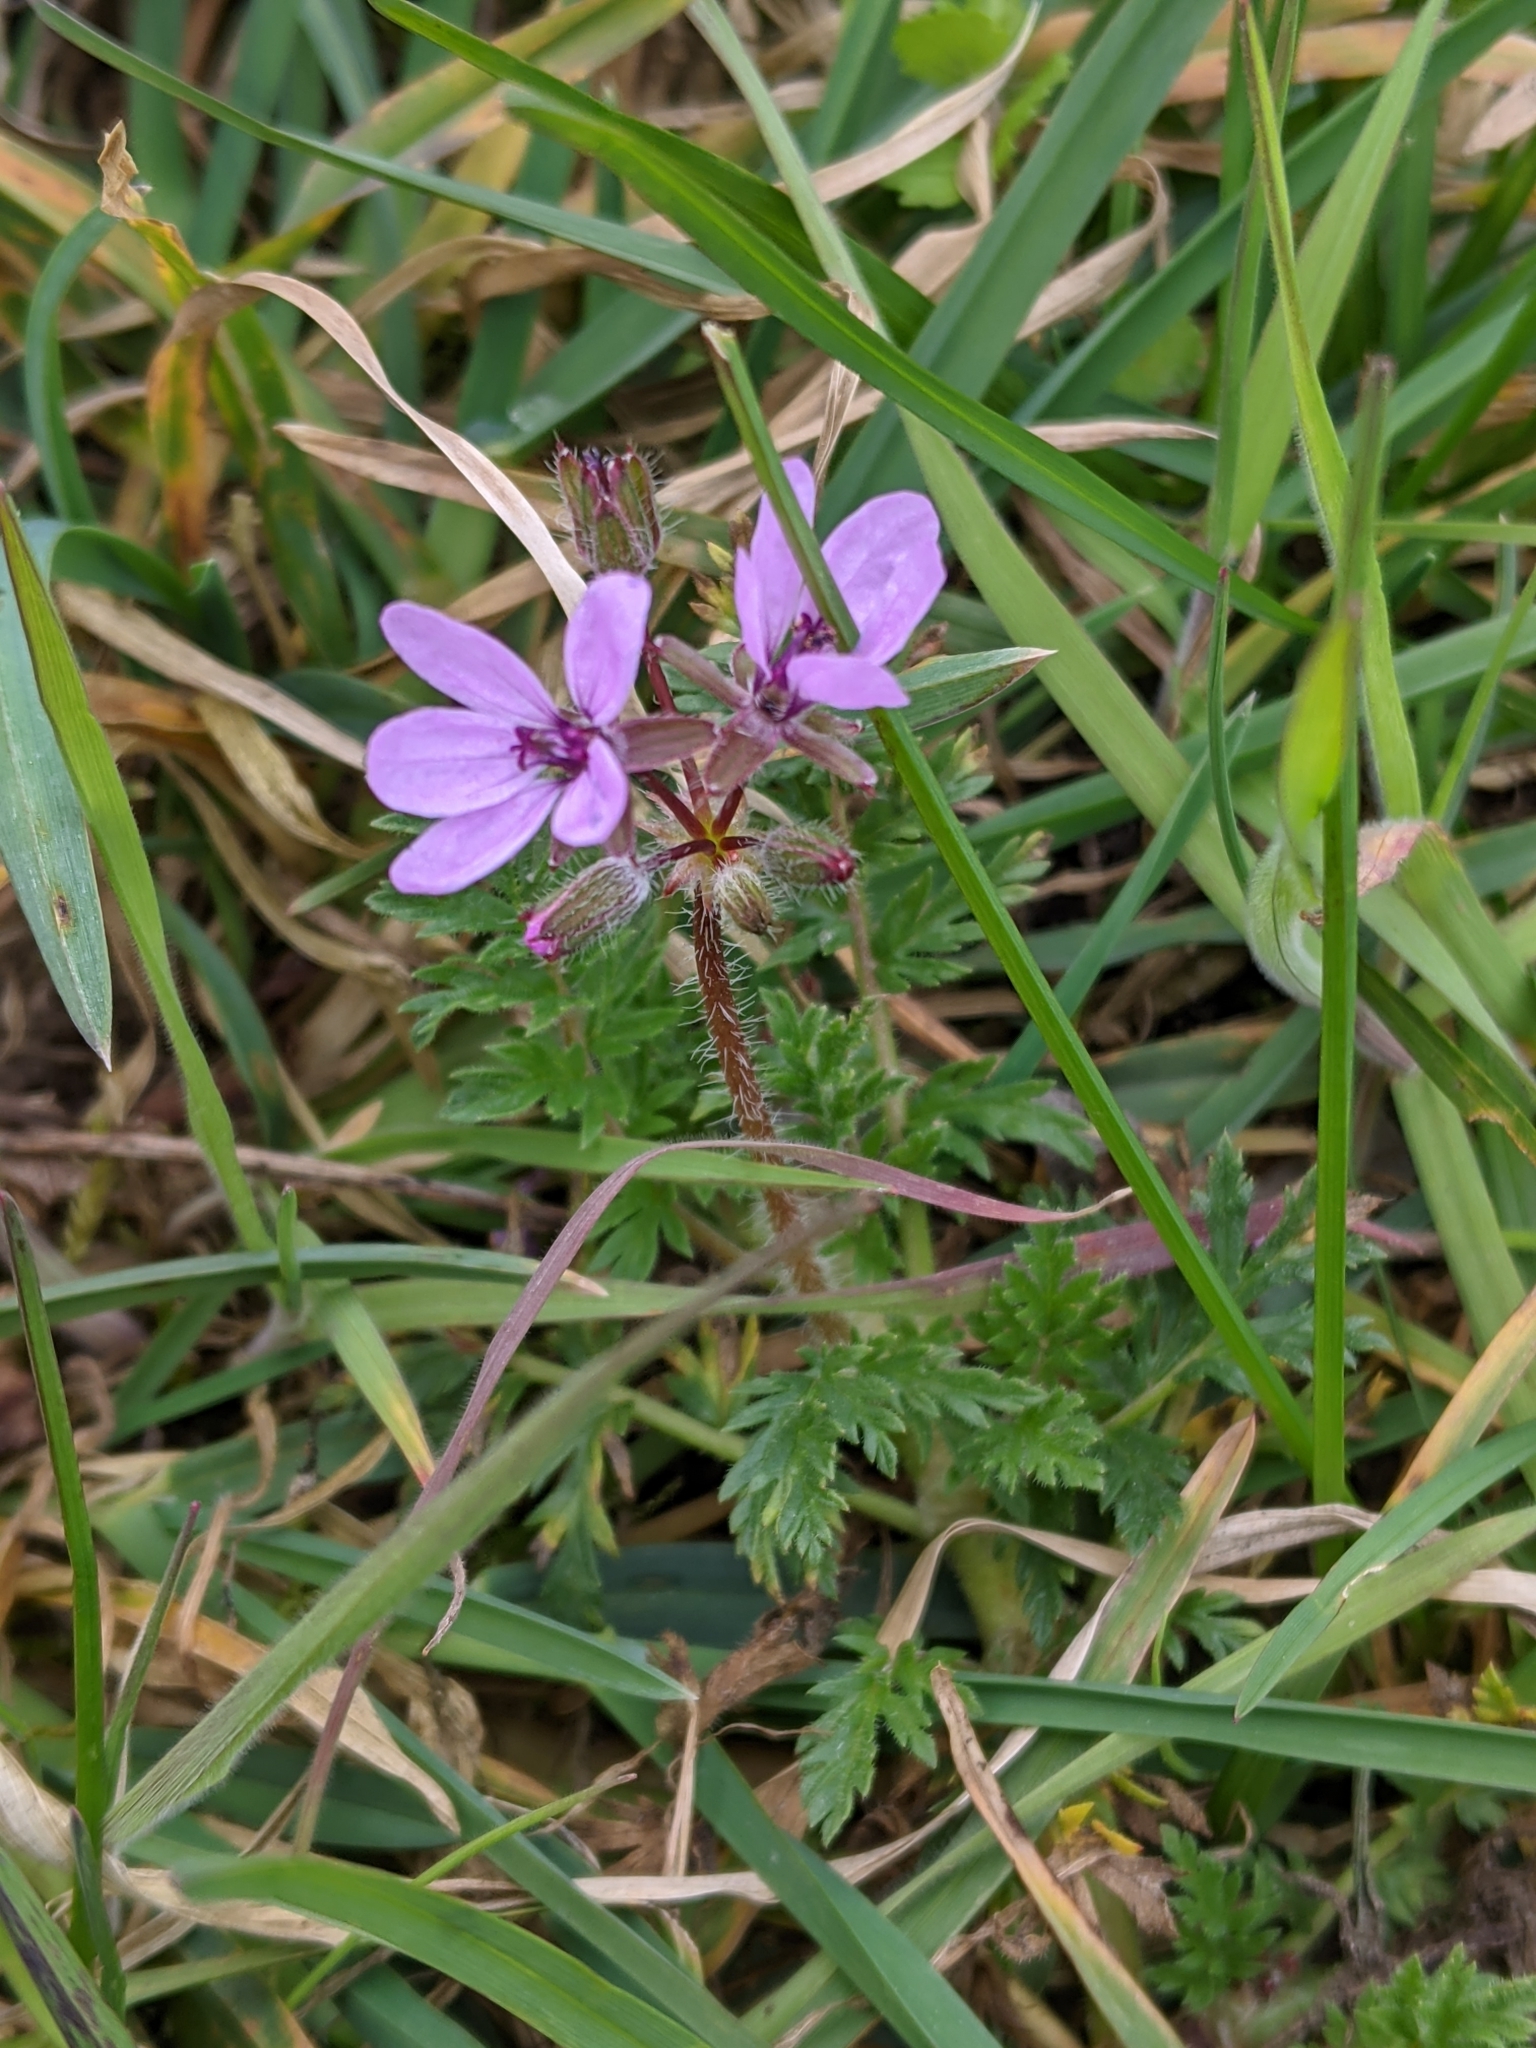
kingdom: Plantae
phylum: Tracheophyta
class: Magnoliopsida
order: Geraniales
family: Geraniaceae
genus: Erodium
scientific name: Erodium cicutarium
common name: Common stork's-bill
